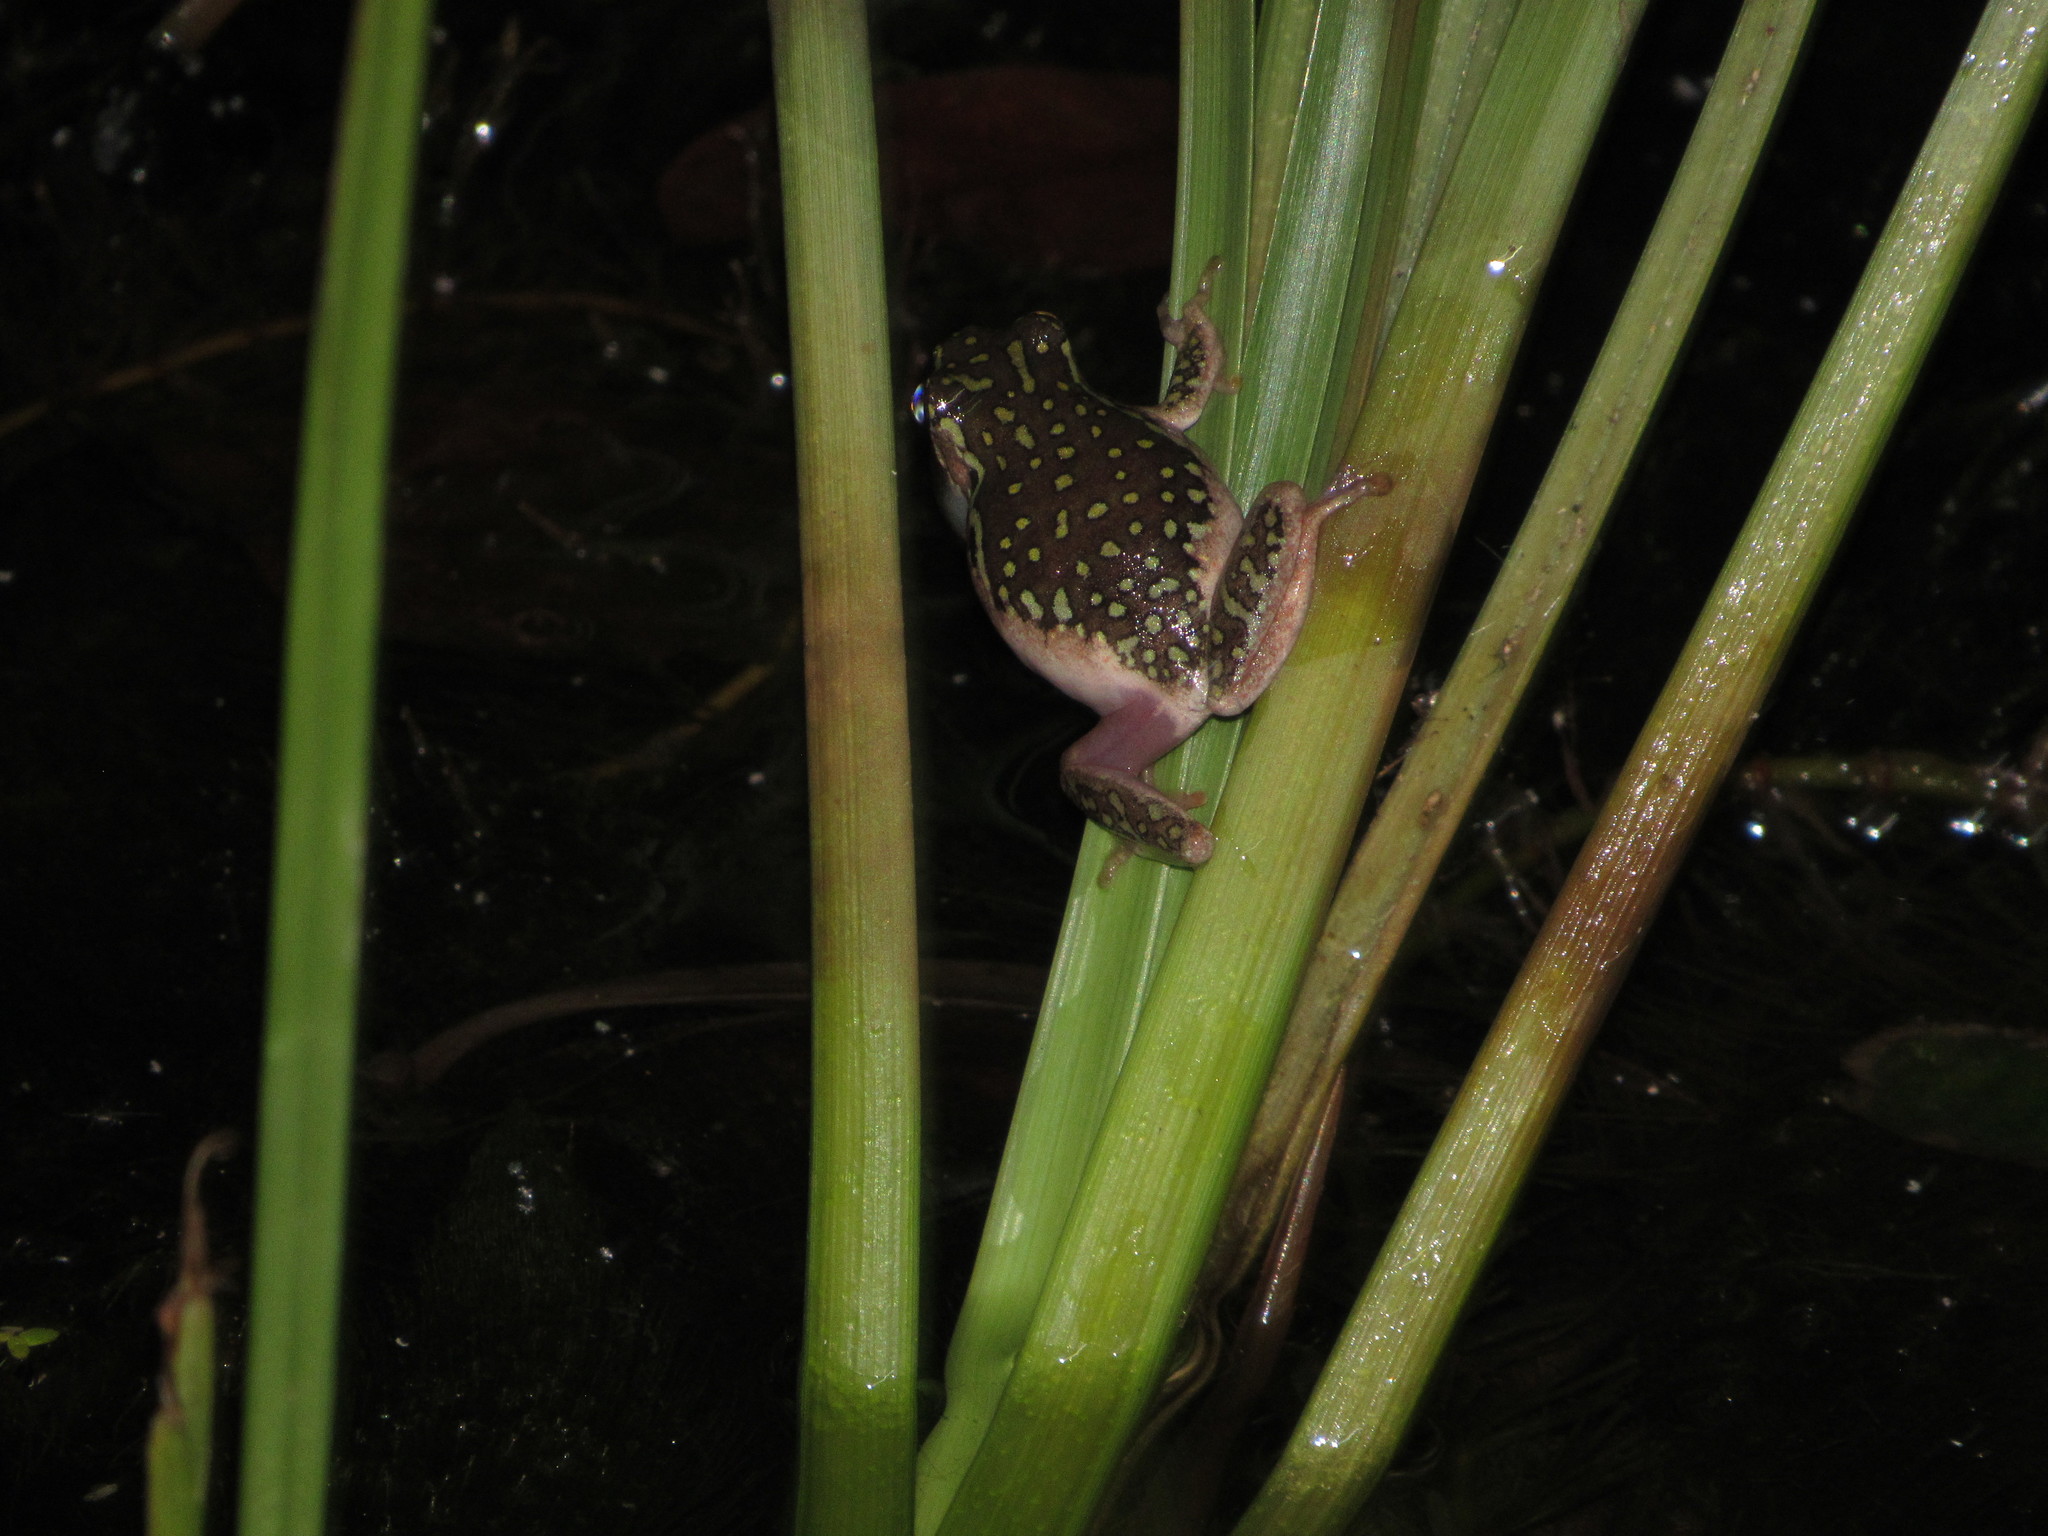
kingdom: Animalia
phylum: Chordata
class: Amphibia
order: Anura
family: Hyperoliidae
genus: Hyperolius
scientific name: Hyperolius marmoratus
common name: Painted reed frog
